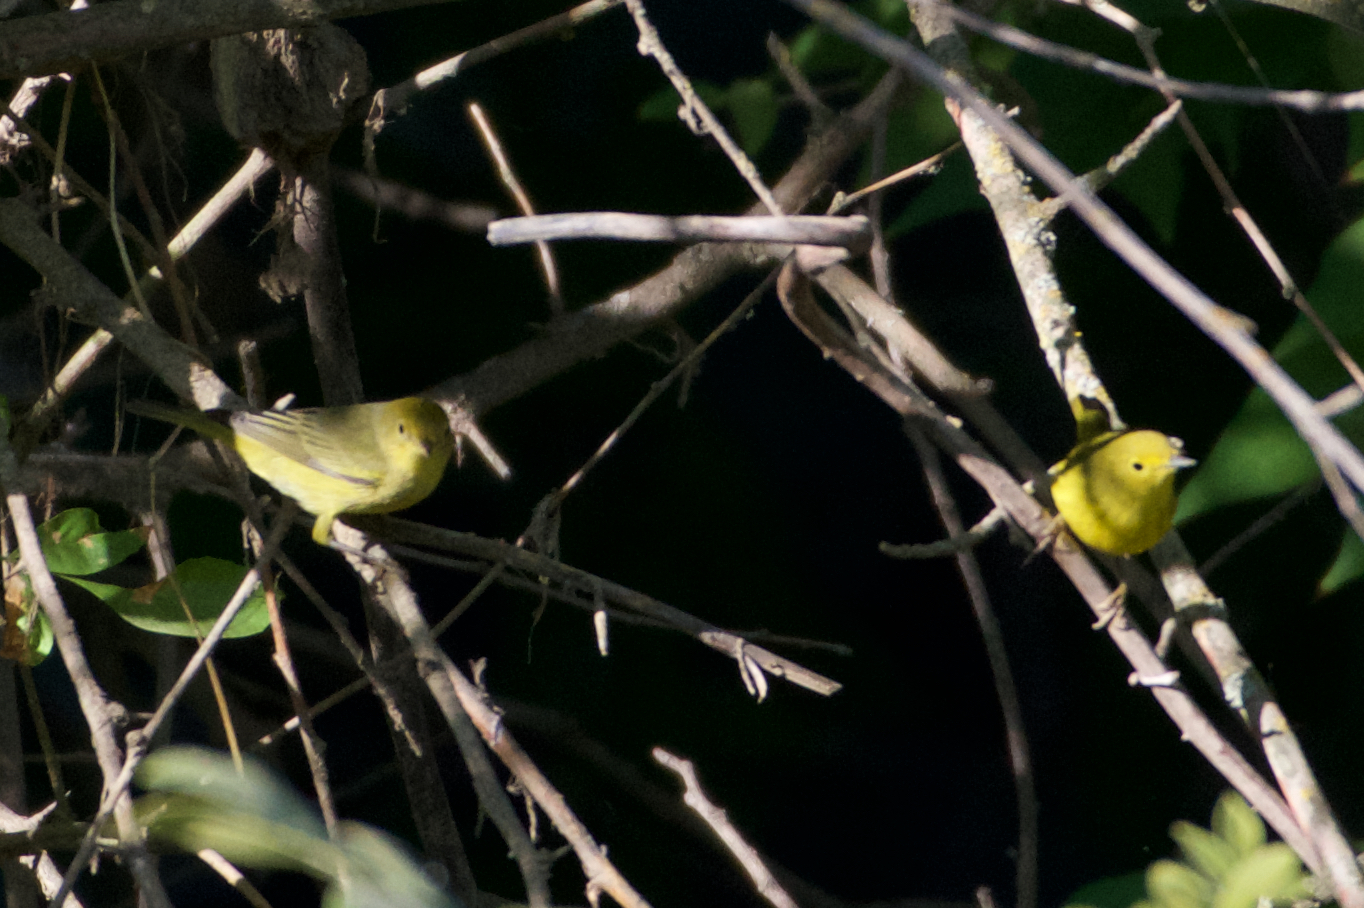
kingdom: Animalia
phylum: Chordata
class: Aves
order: Passeriformes
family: Parulidae
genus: Setophaga
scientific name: Setophaga petechia
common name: Yellow warbler
